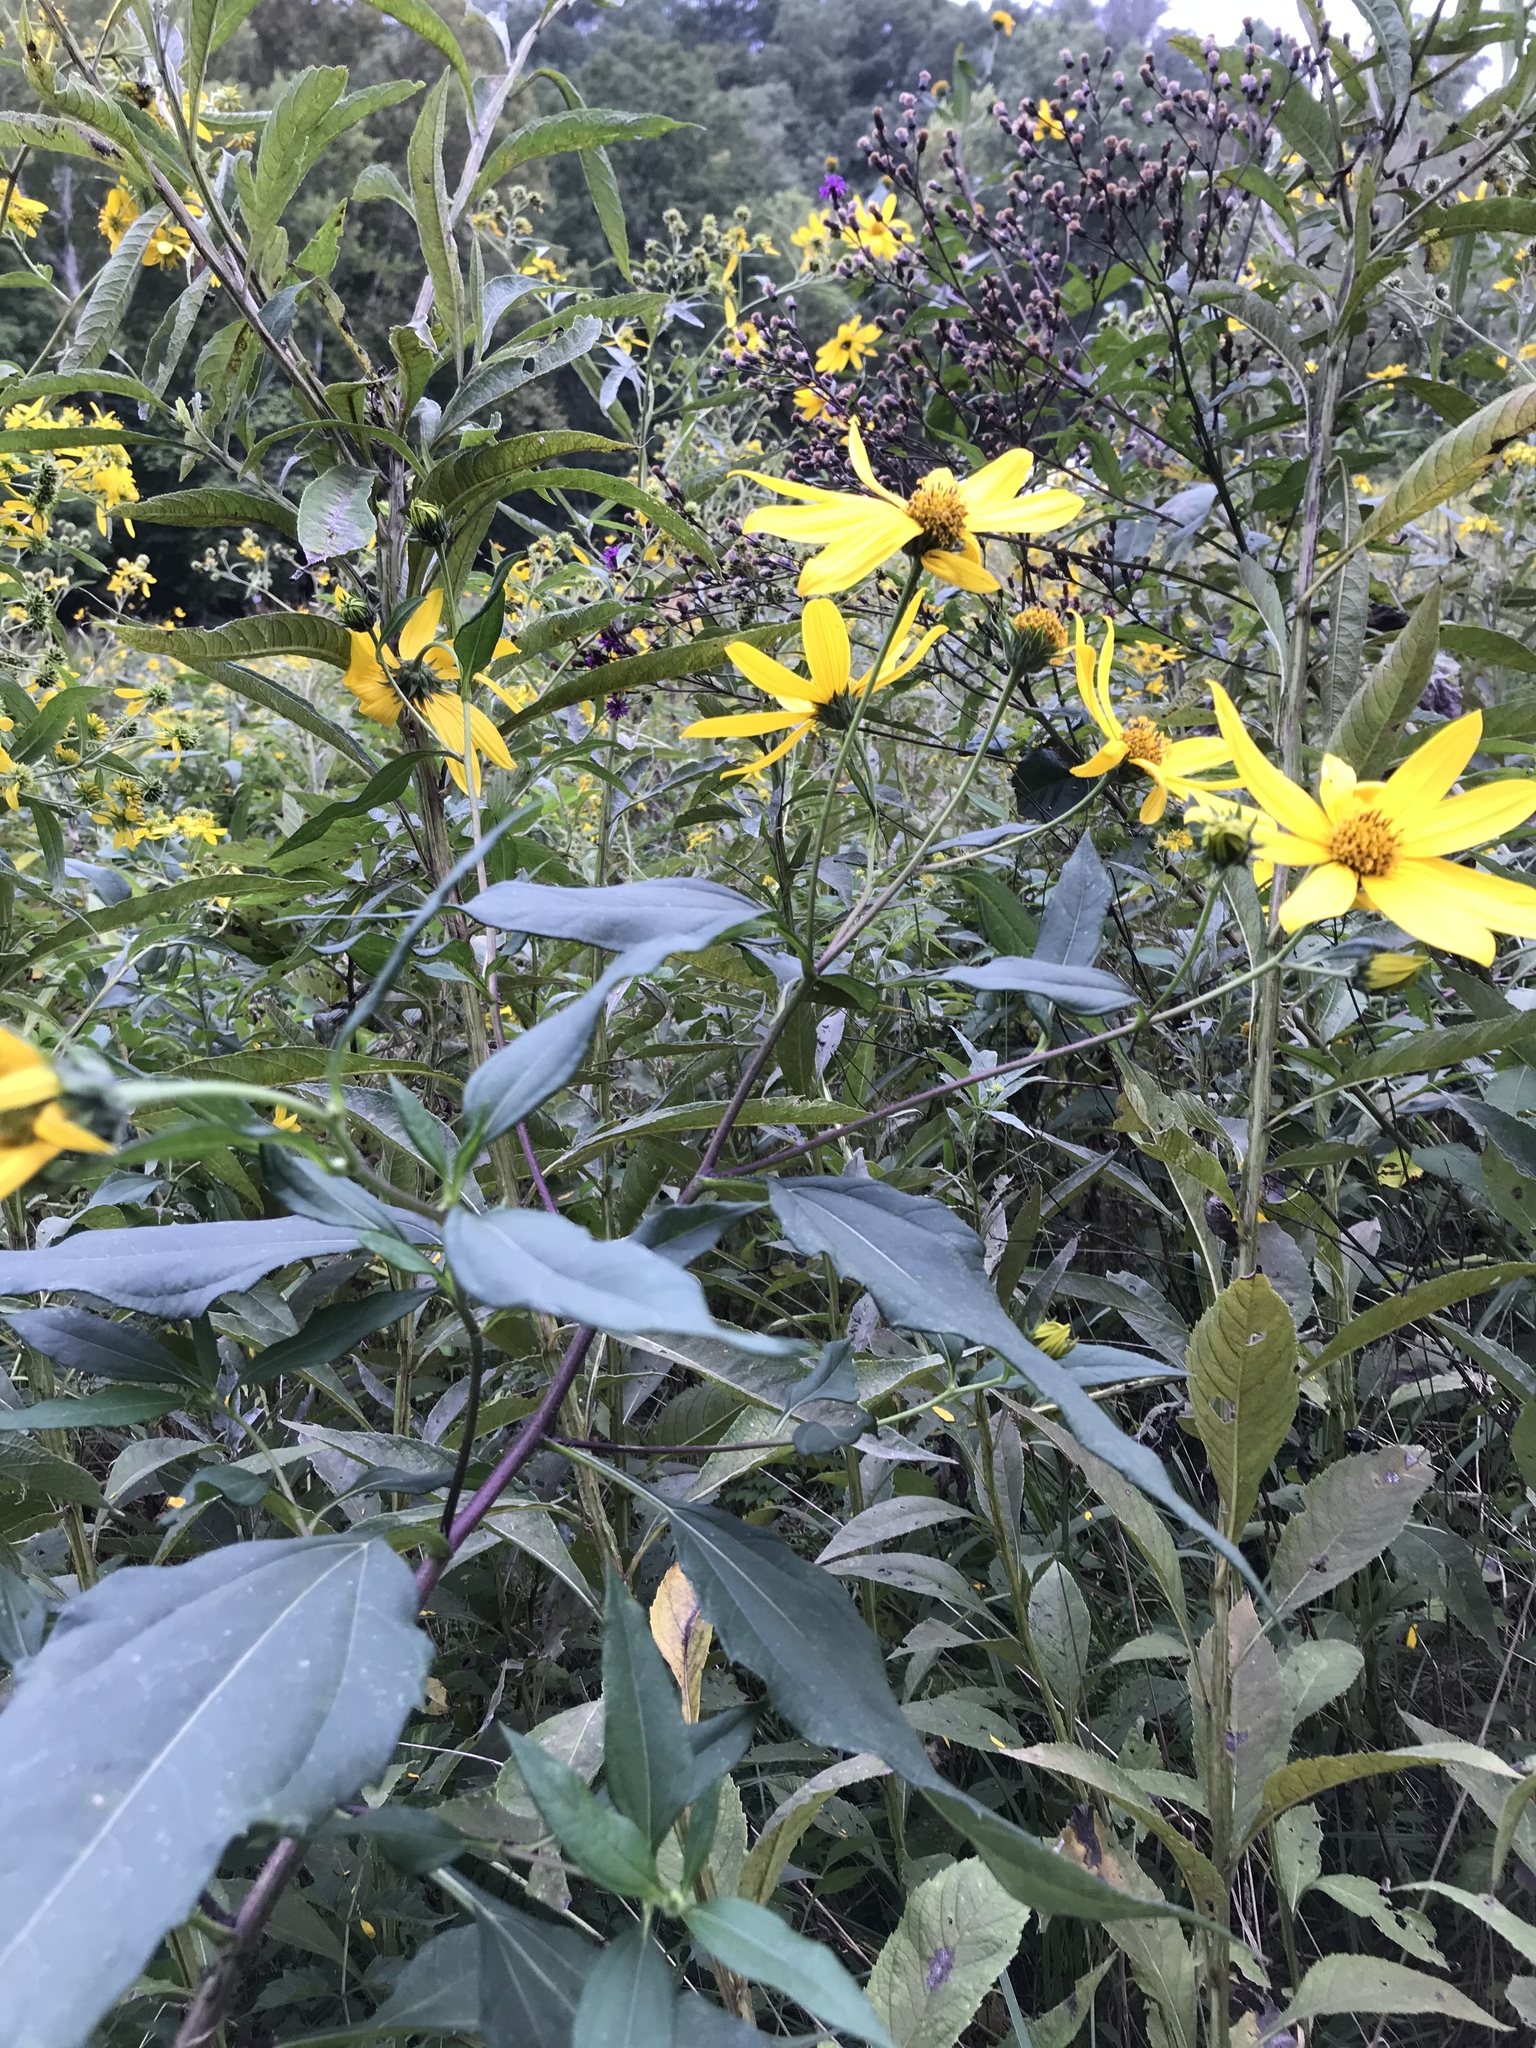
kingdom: Plantae
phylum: Tracheophyta
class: Magnoliopsida
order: Asterales
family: Asteraceae
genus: Helianthus
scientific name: Helianthus tuberosus
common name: Jerusalem artichoke
